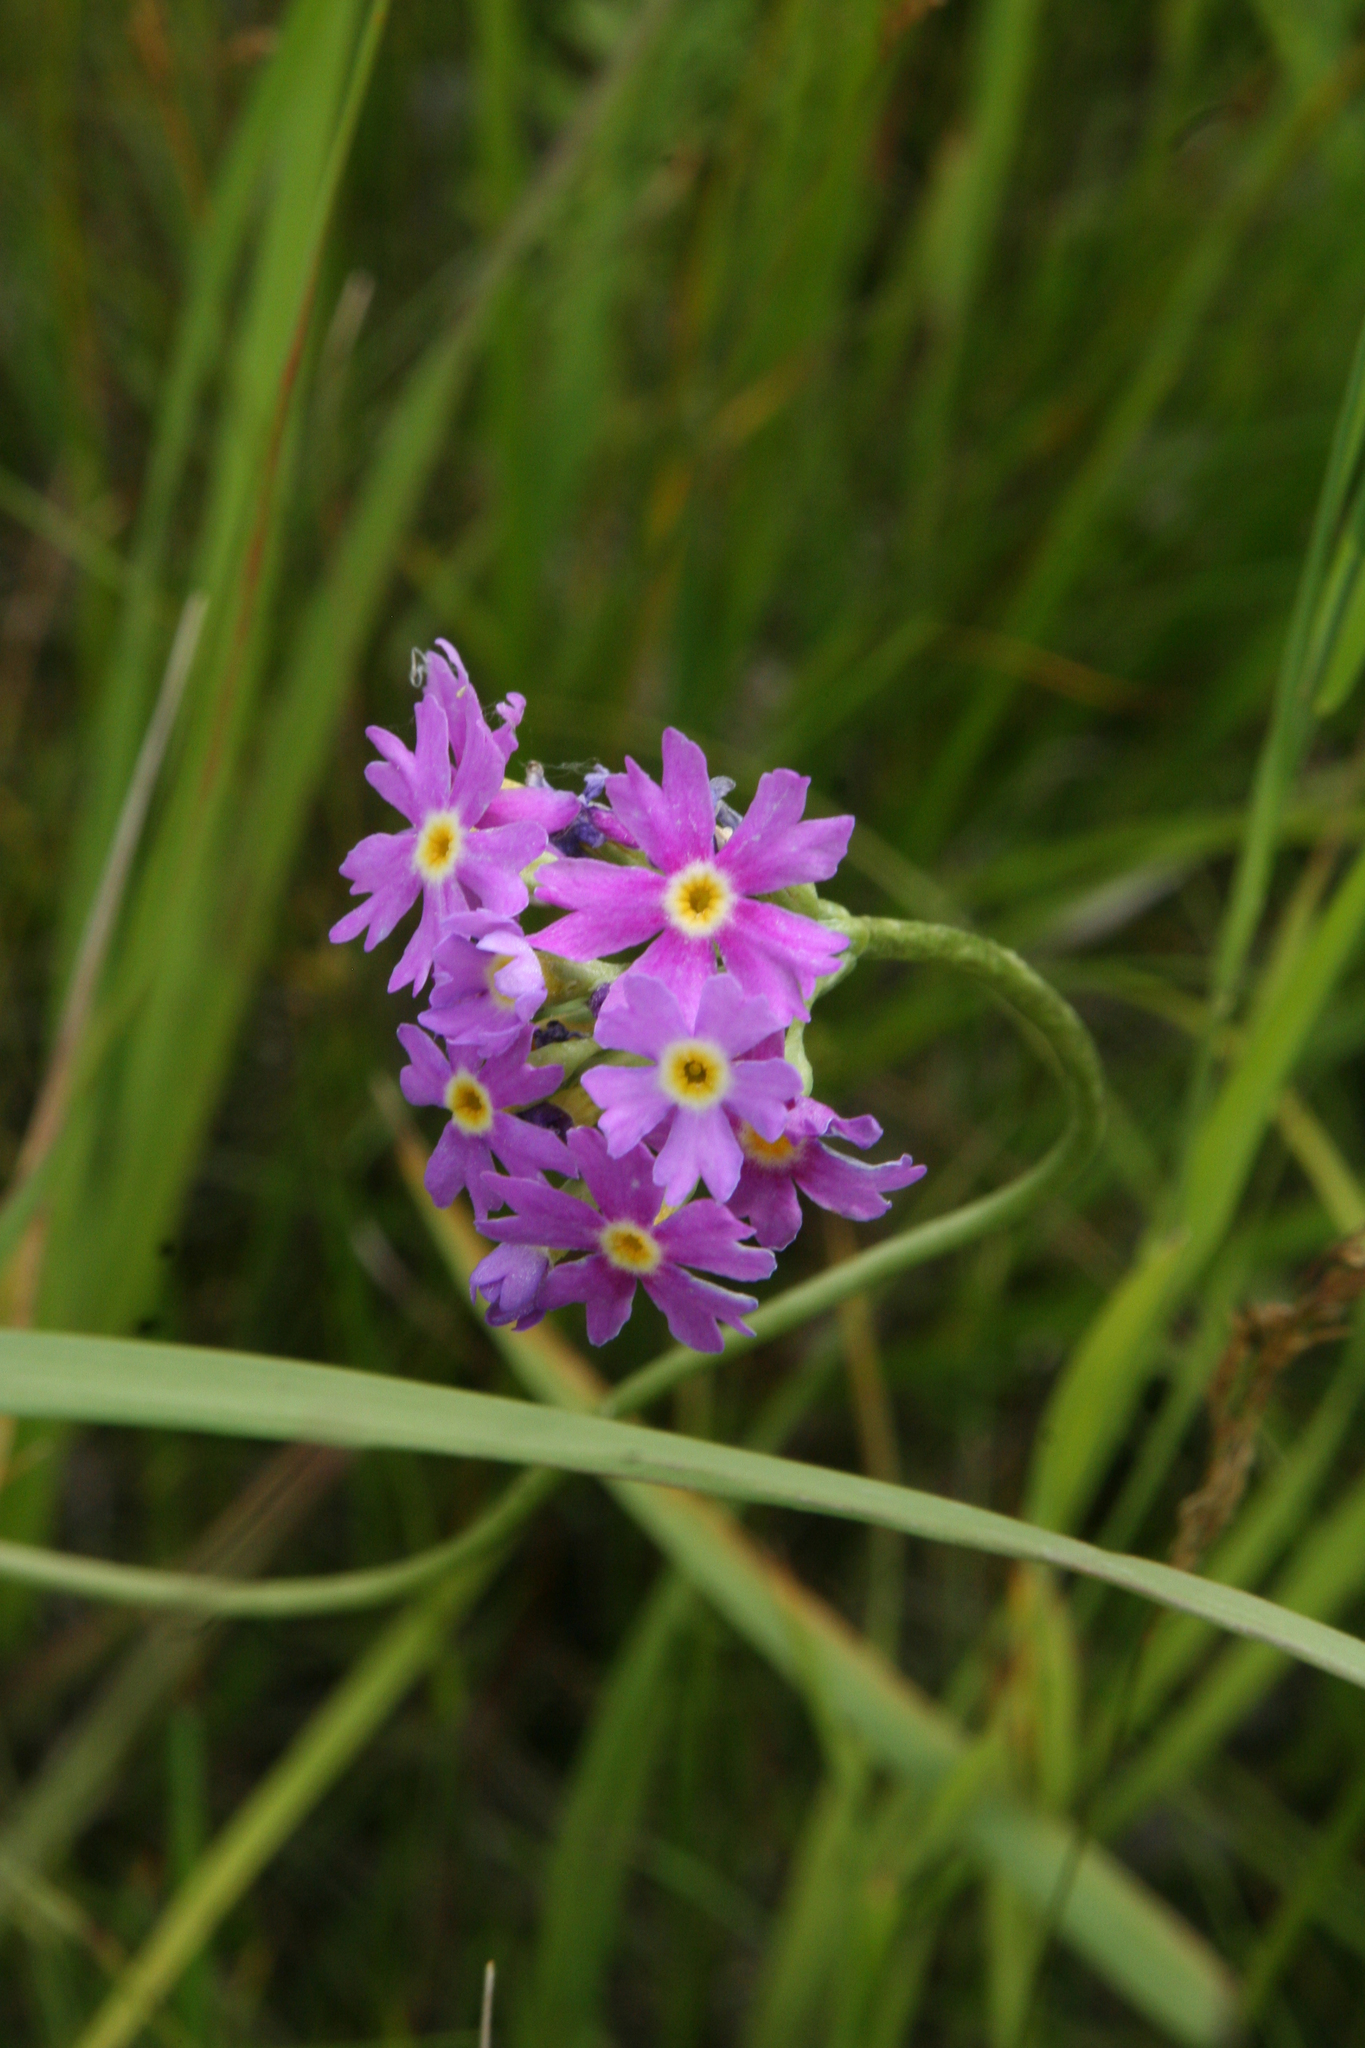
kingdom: Plantae
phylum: Tracheophyta
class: Magnoliopsida
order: Ericales
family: Primulaceae
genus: Primula
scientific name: Primula longiscapa
